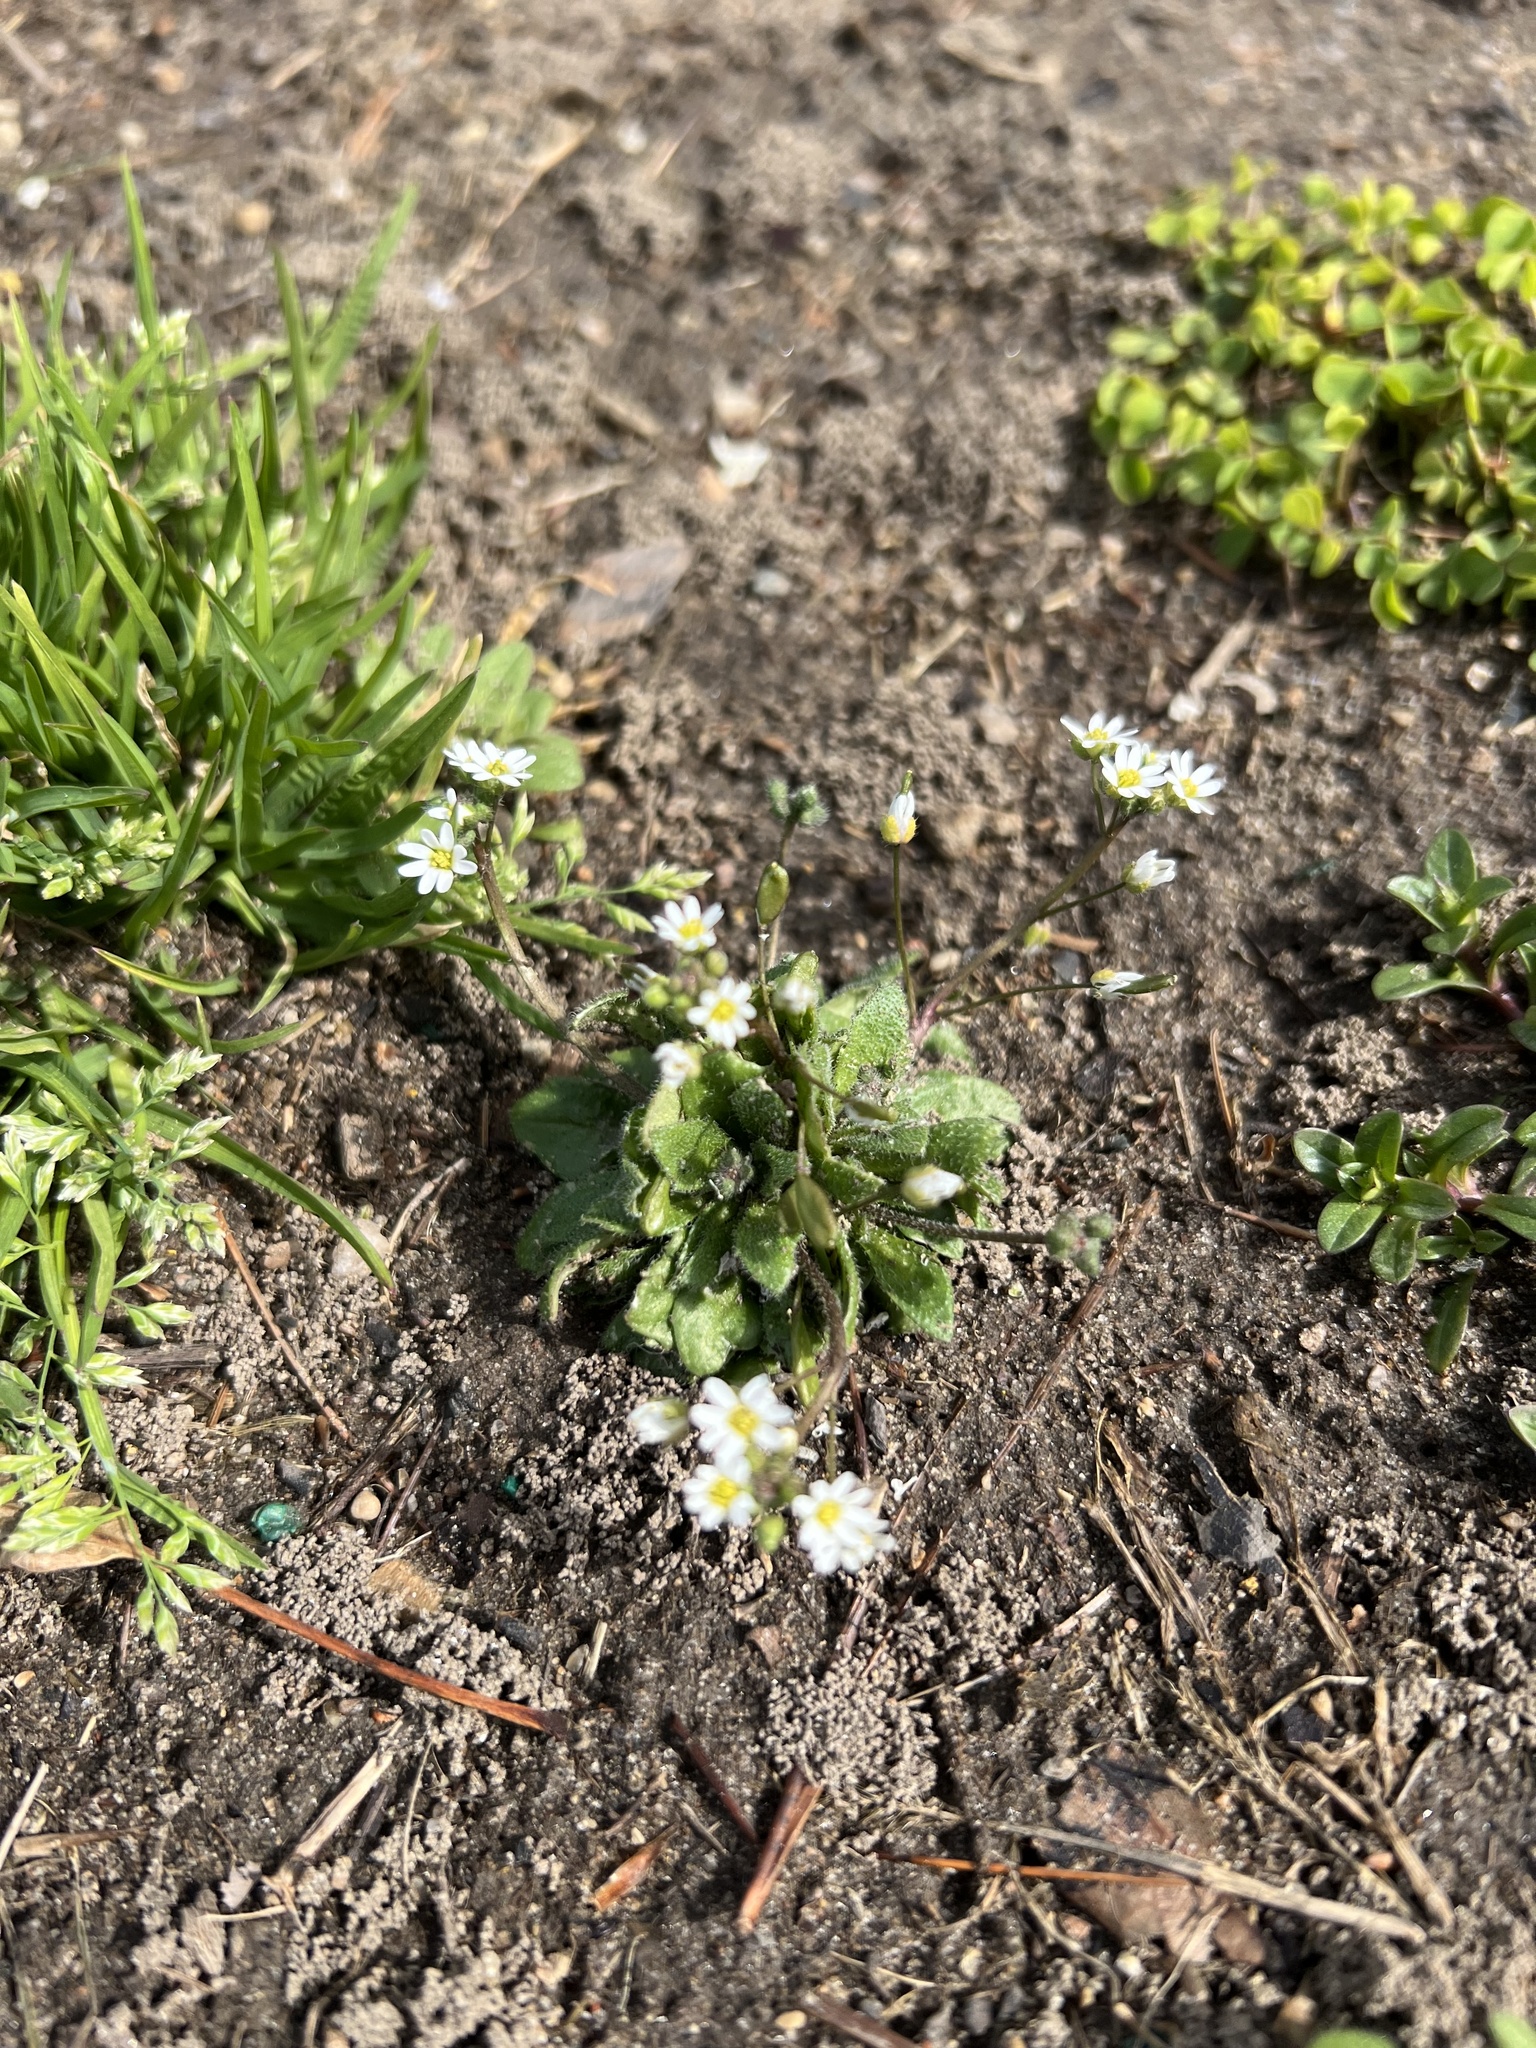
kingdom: Plantae
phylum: Tracheophyta
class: Magnoliopsida
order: Brassicales
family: Brassicaceae
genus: Draba
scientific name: Draba verna
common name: Spring draba
